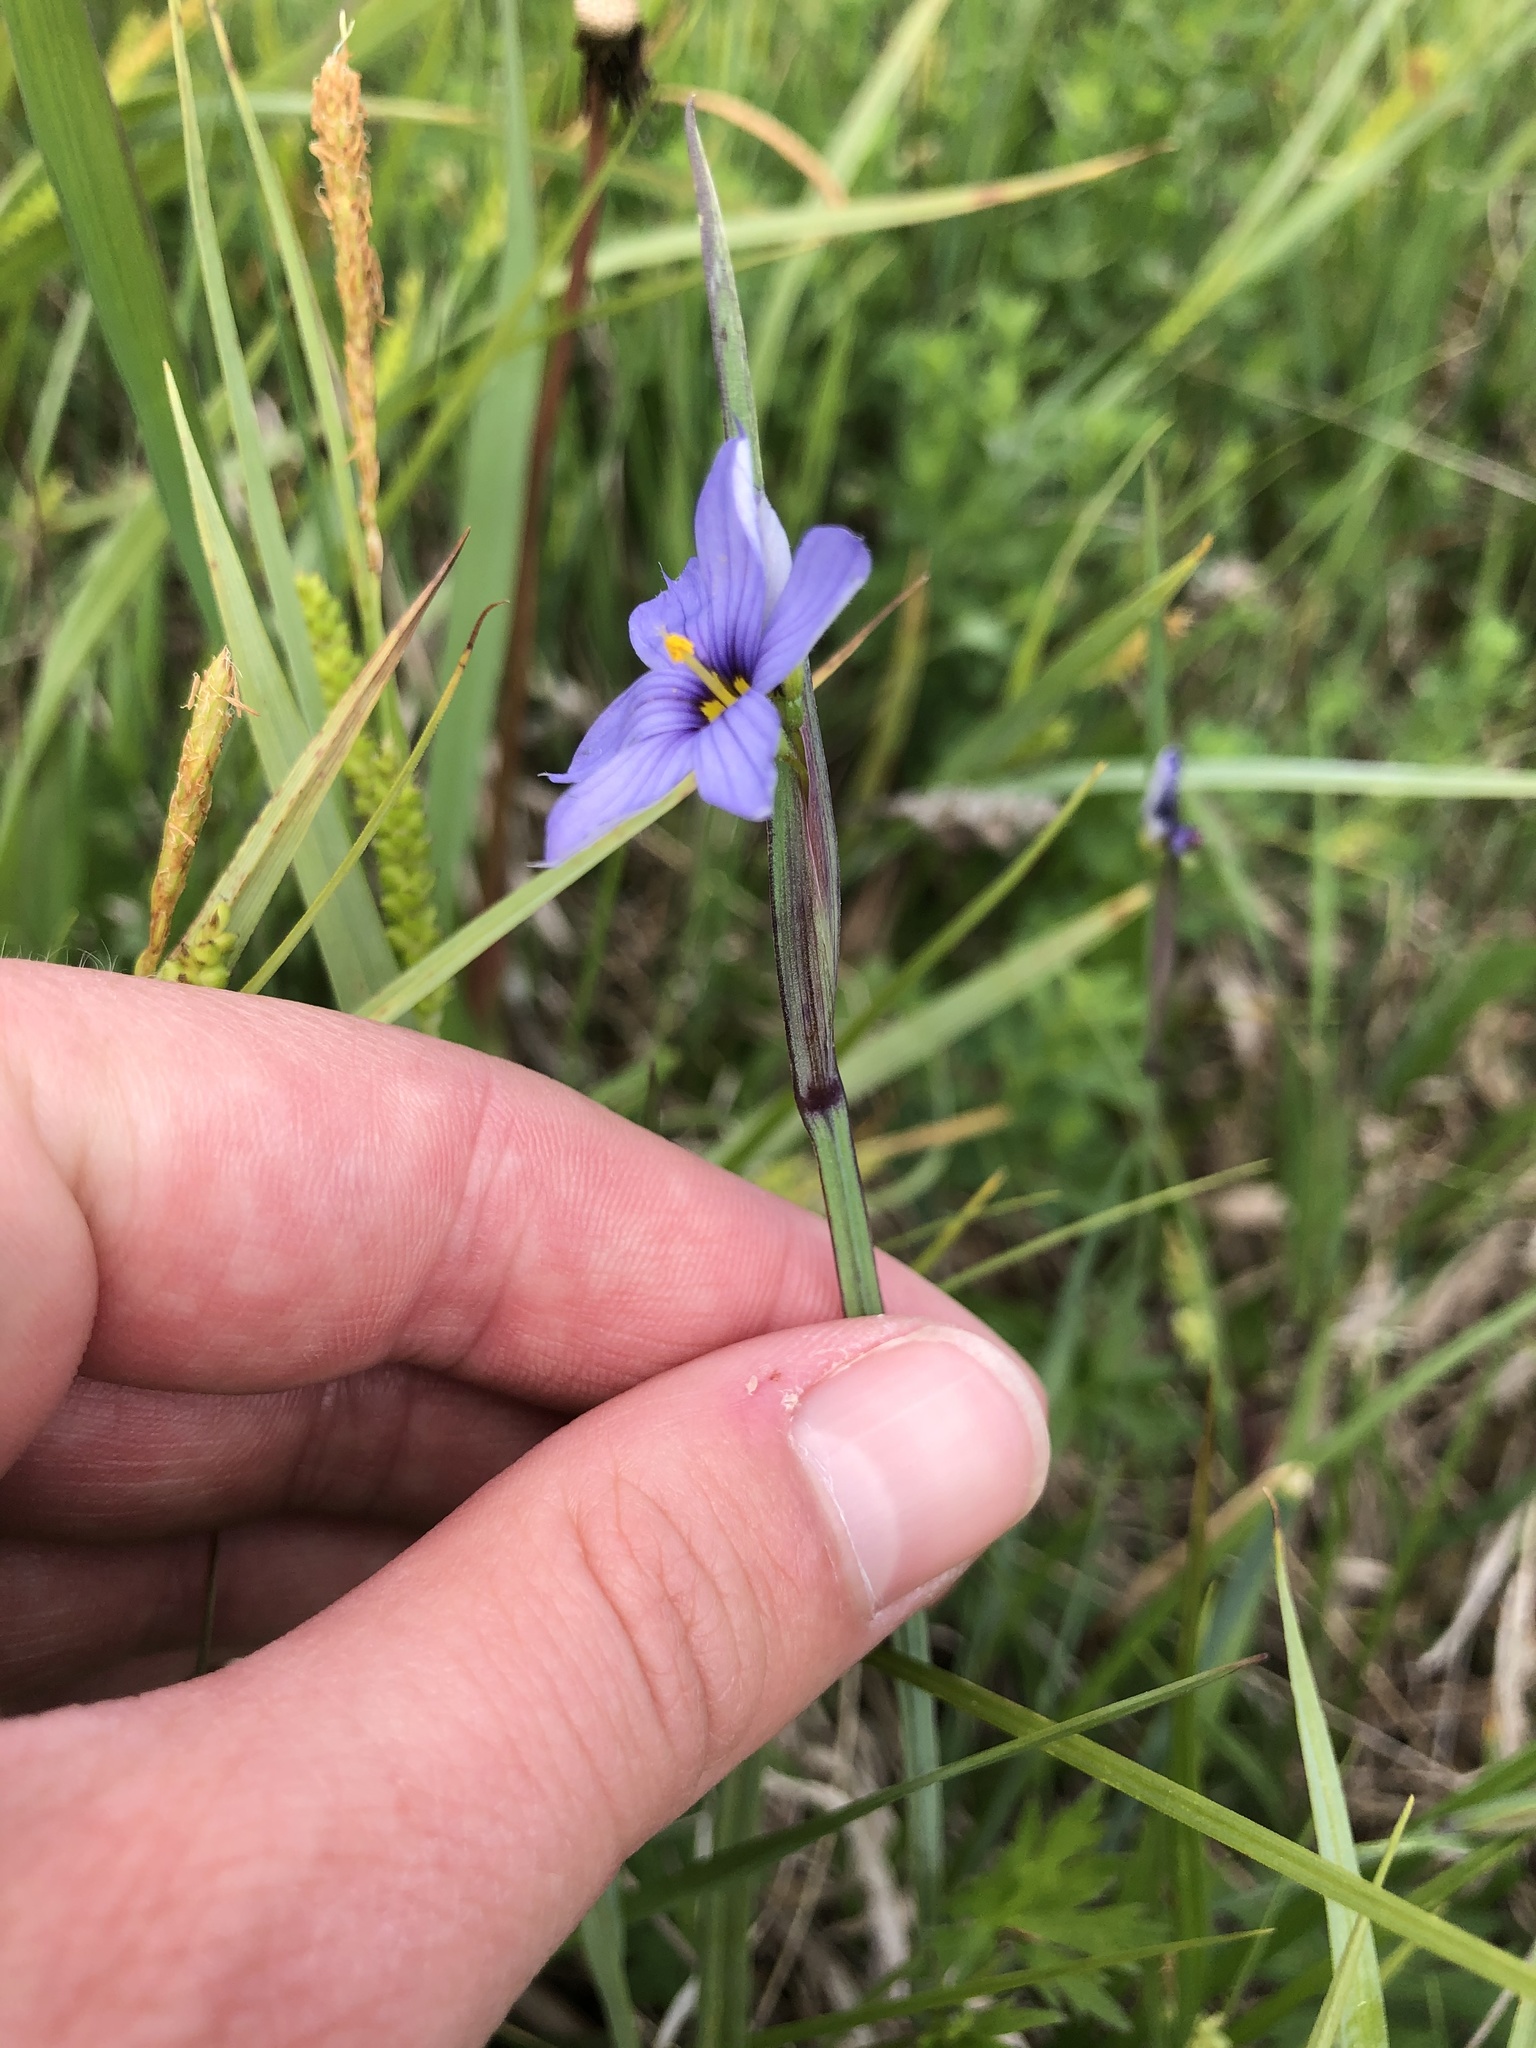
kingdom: Plantae
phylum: Tracheophyta
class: Liliopsida
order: Asparagales
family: Iridaceae
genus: Sisyrinchium
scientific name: Sisyrinchium montanum
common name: American blue-eyed-grass
